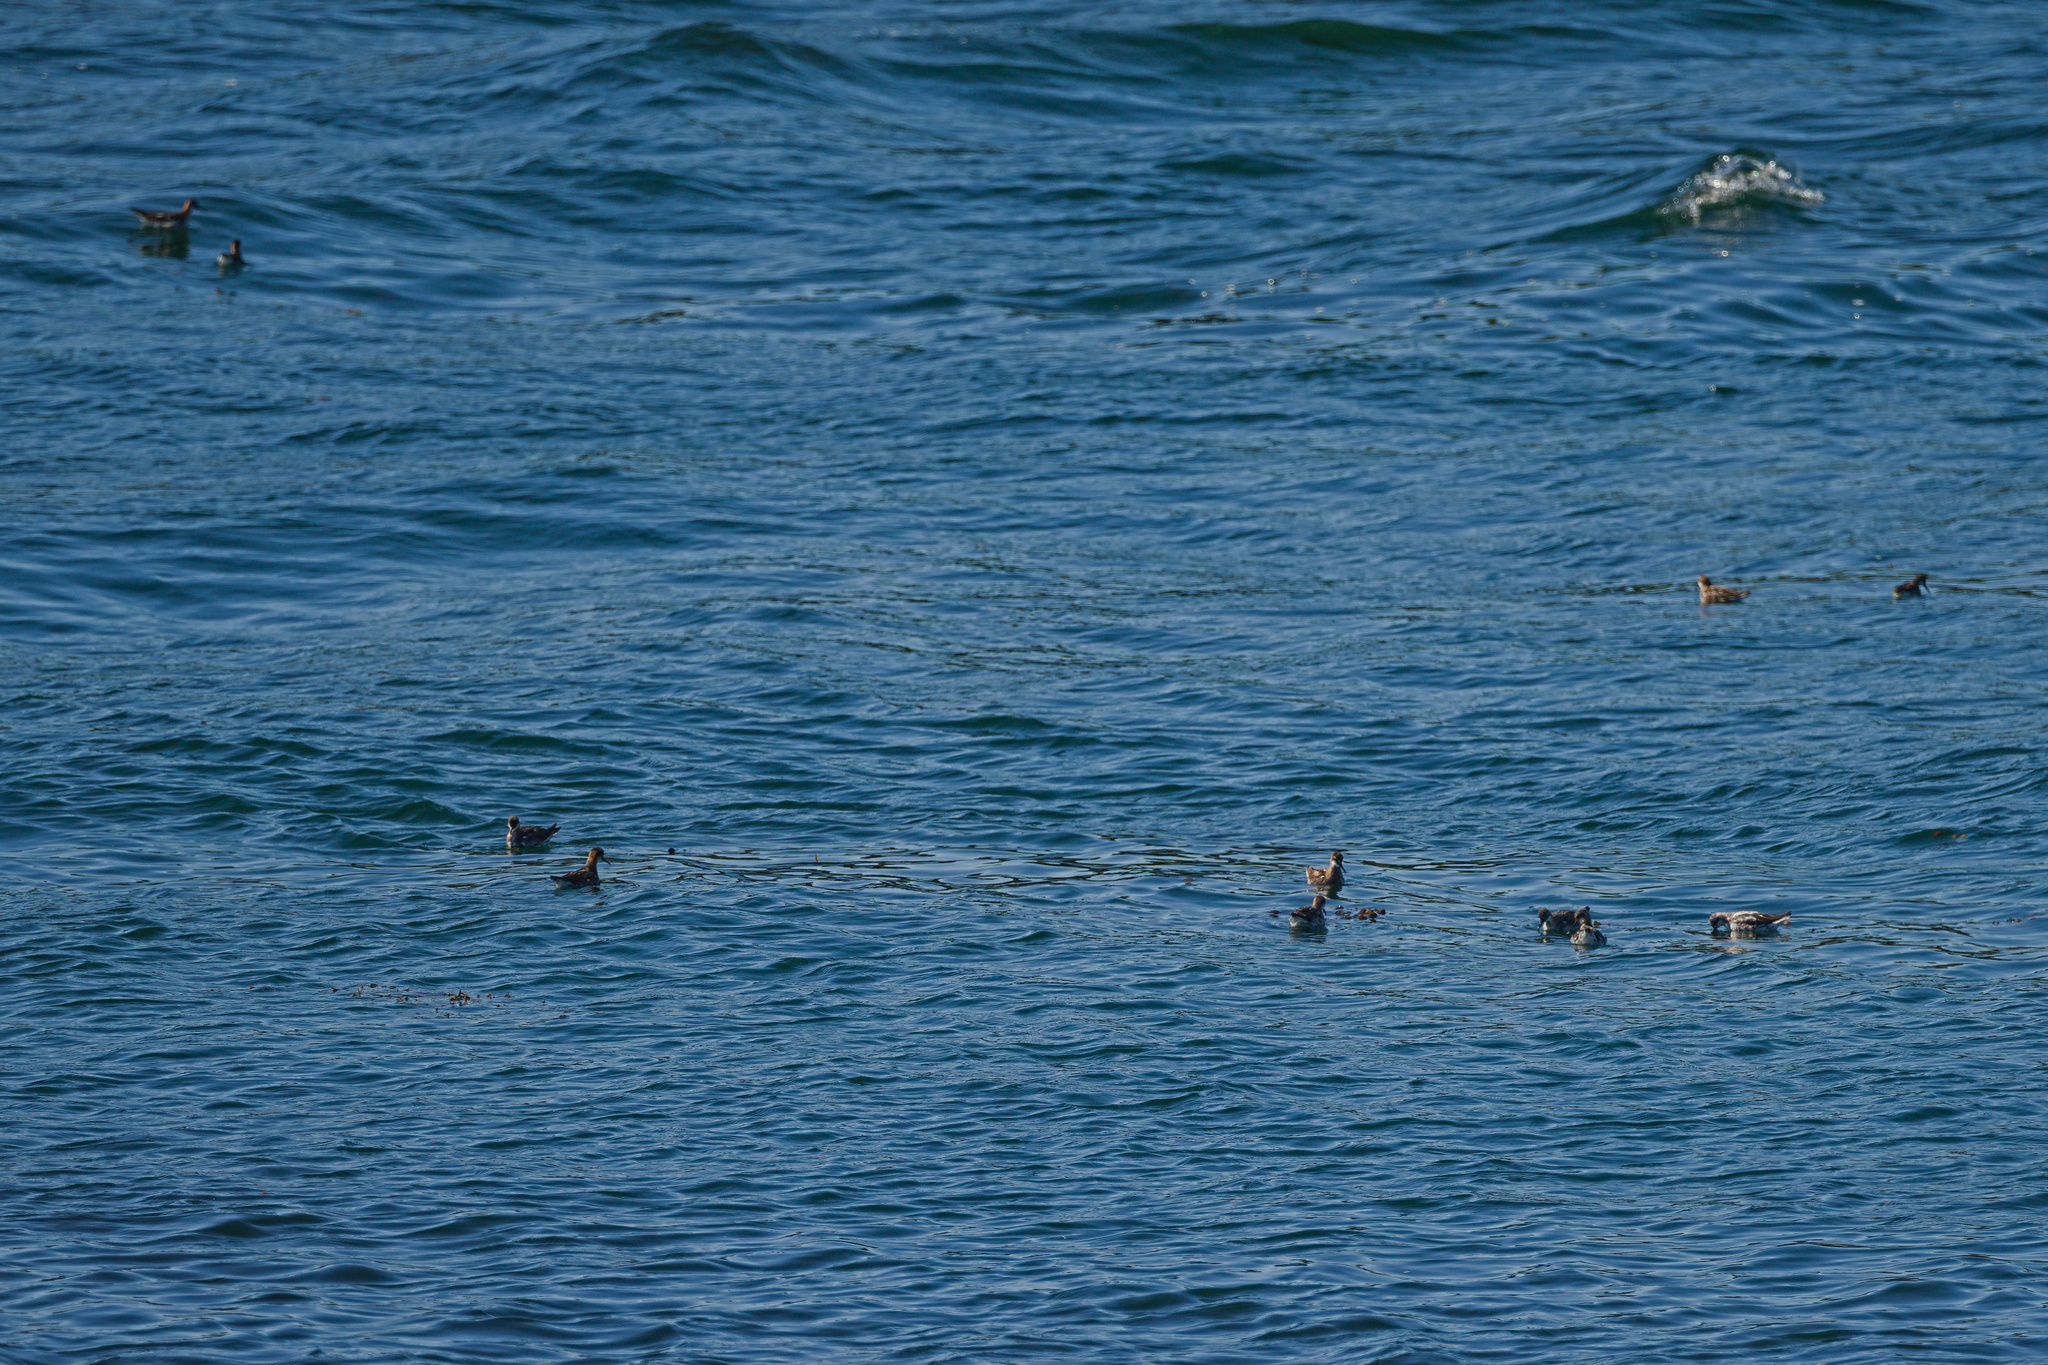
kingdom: Animalia
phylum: Chordata
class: Aves
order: Charadriiformes
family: Scolopacidae
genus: Phalaropus
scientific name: Phalaropus lobatus
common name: Red-necked phalarope
